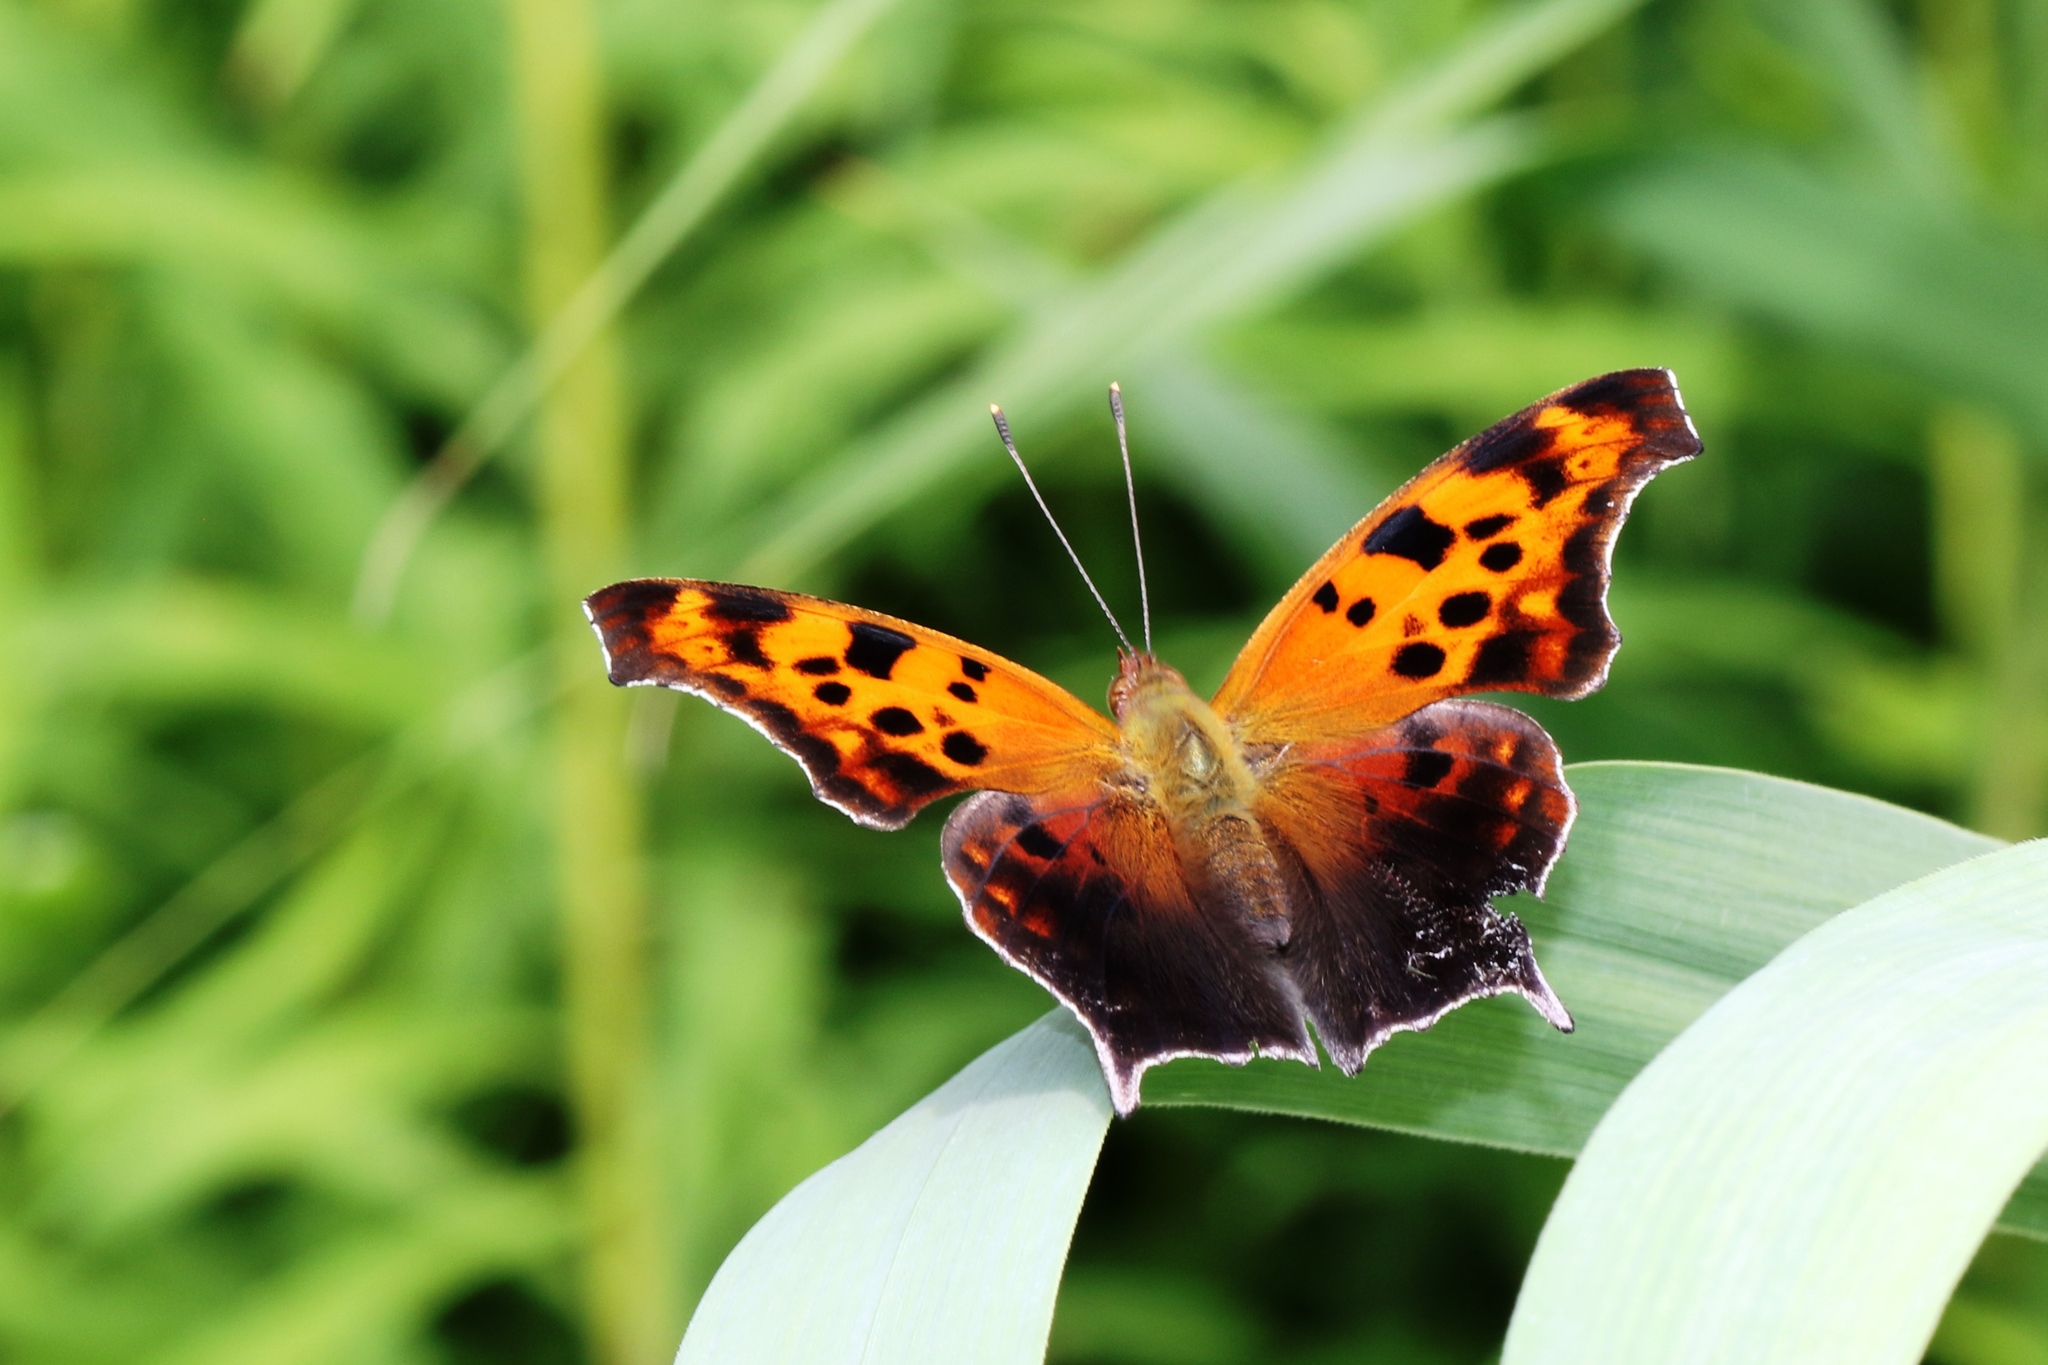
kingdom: Animalia
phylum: Arthropoda
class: Insecta
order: Lepidoptera
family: Nymphalidae
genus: Polygonia
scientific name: Polygonia interrogationis
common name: Question mark
